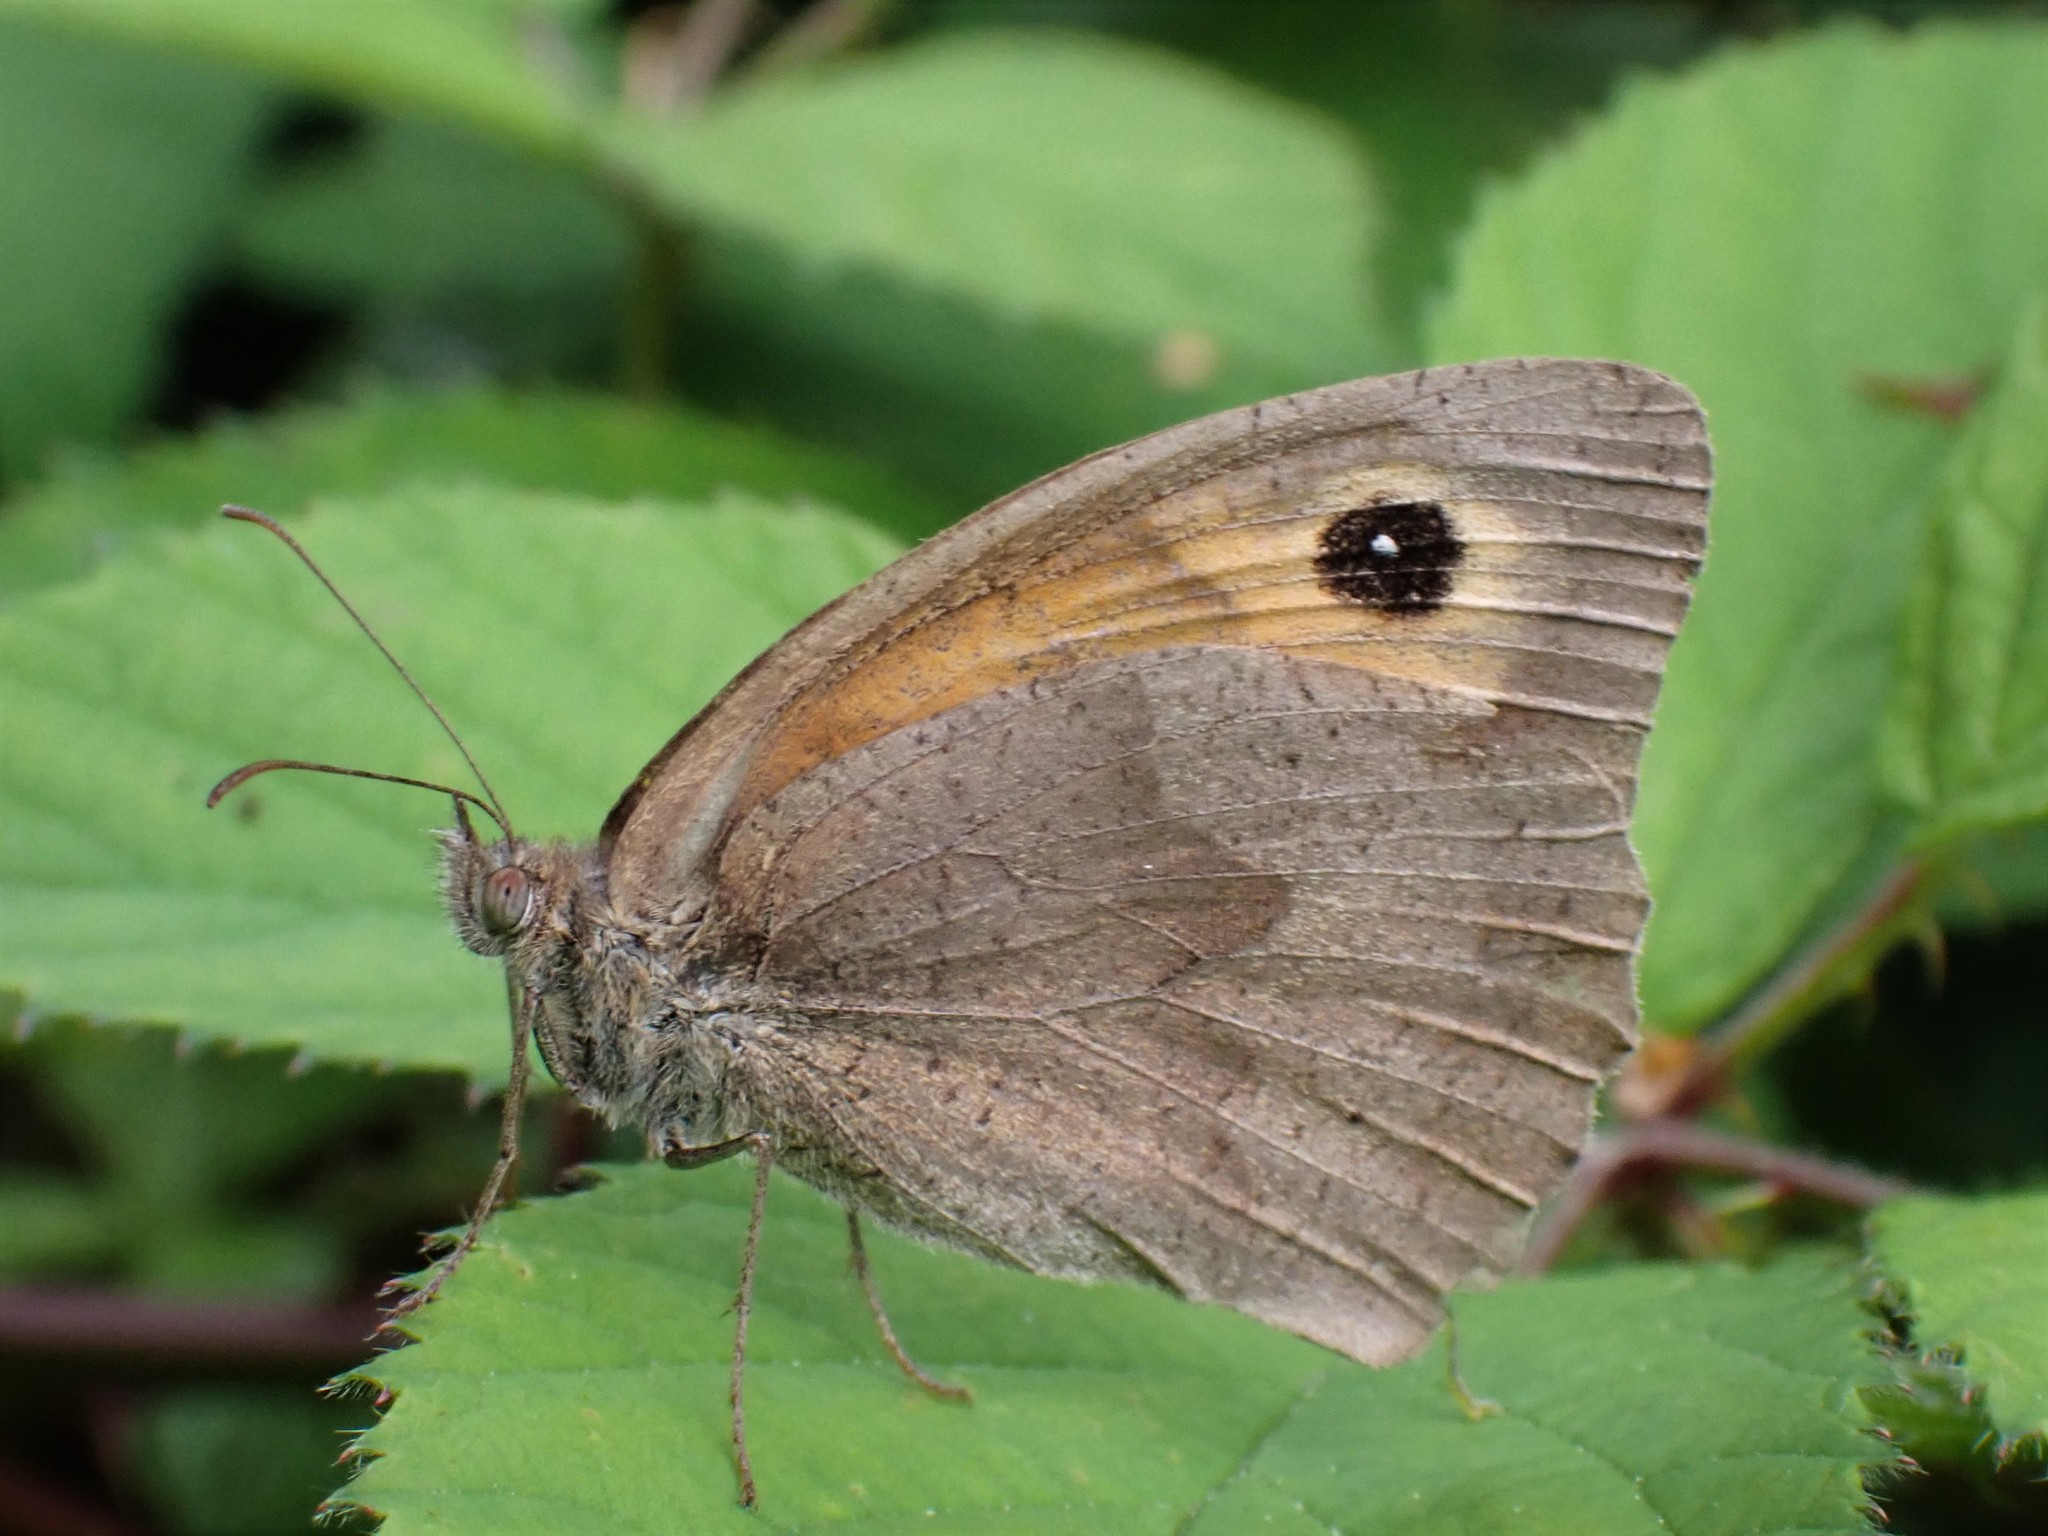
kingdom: Animalia
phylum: Arthropoda
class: Insecta
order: Lepidoptera
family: Nymphalidae
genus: Maniola
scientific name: Maniola jurtina
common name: Meadow brown
